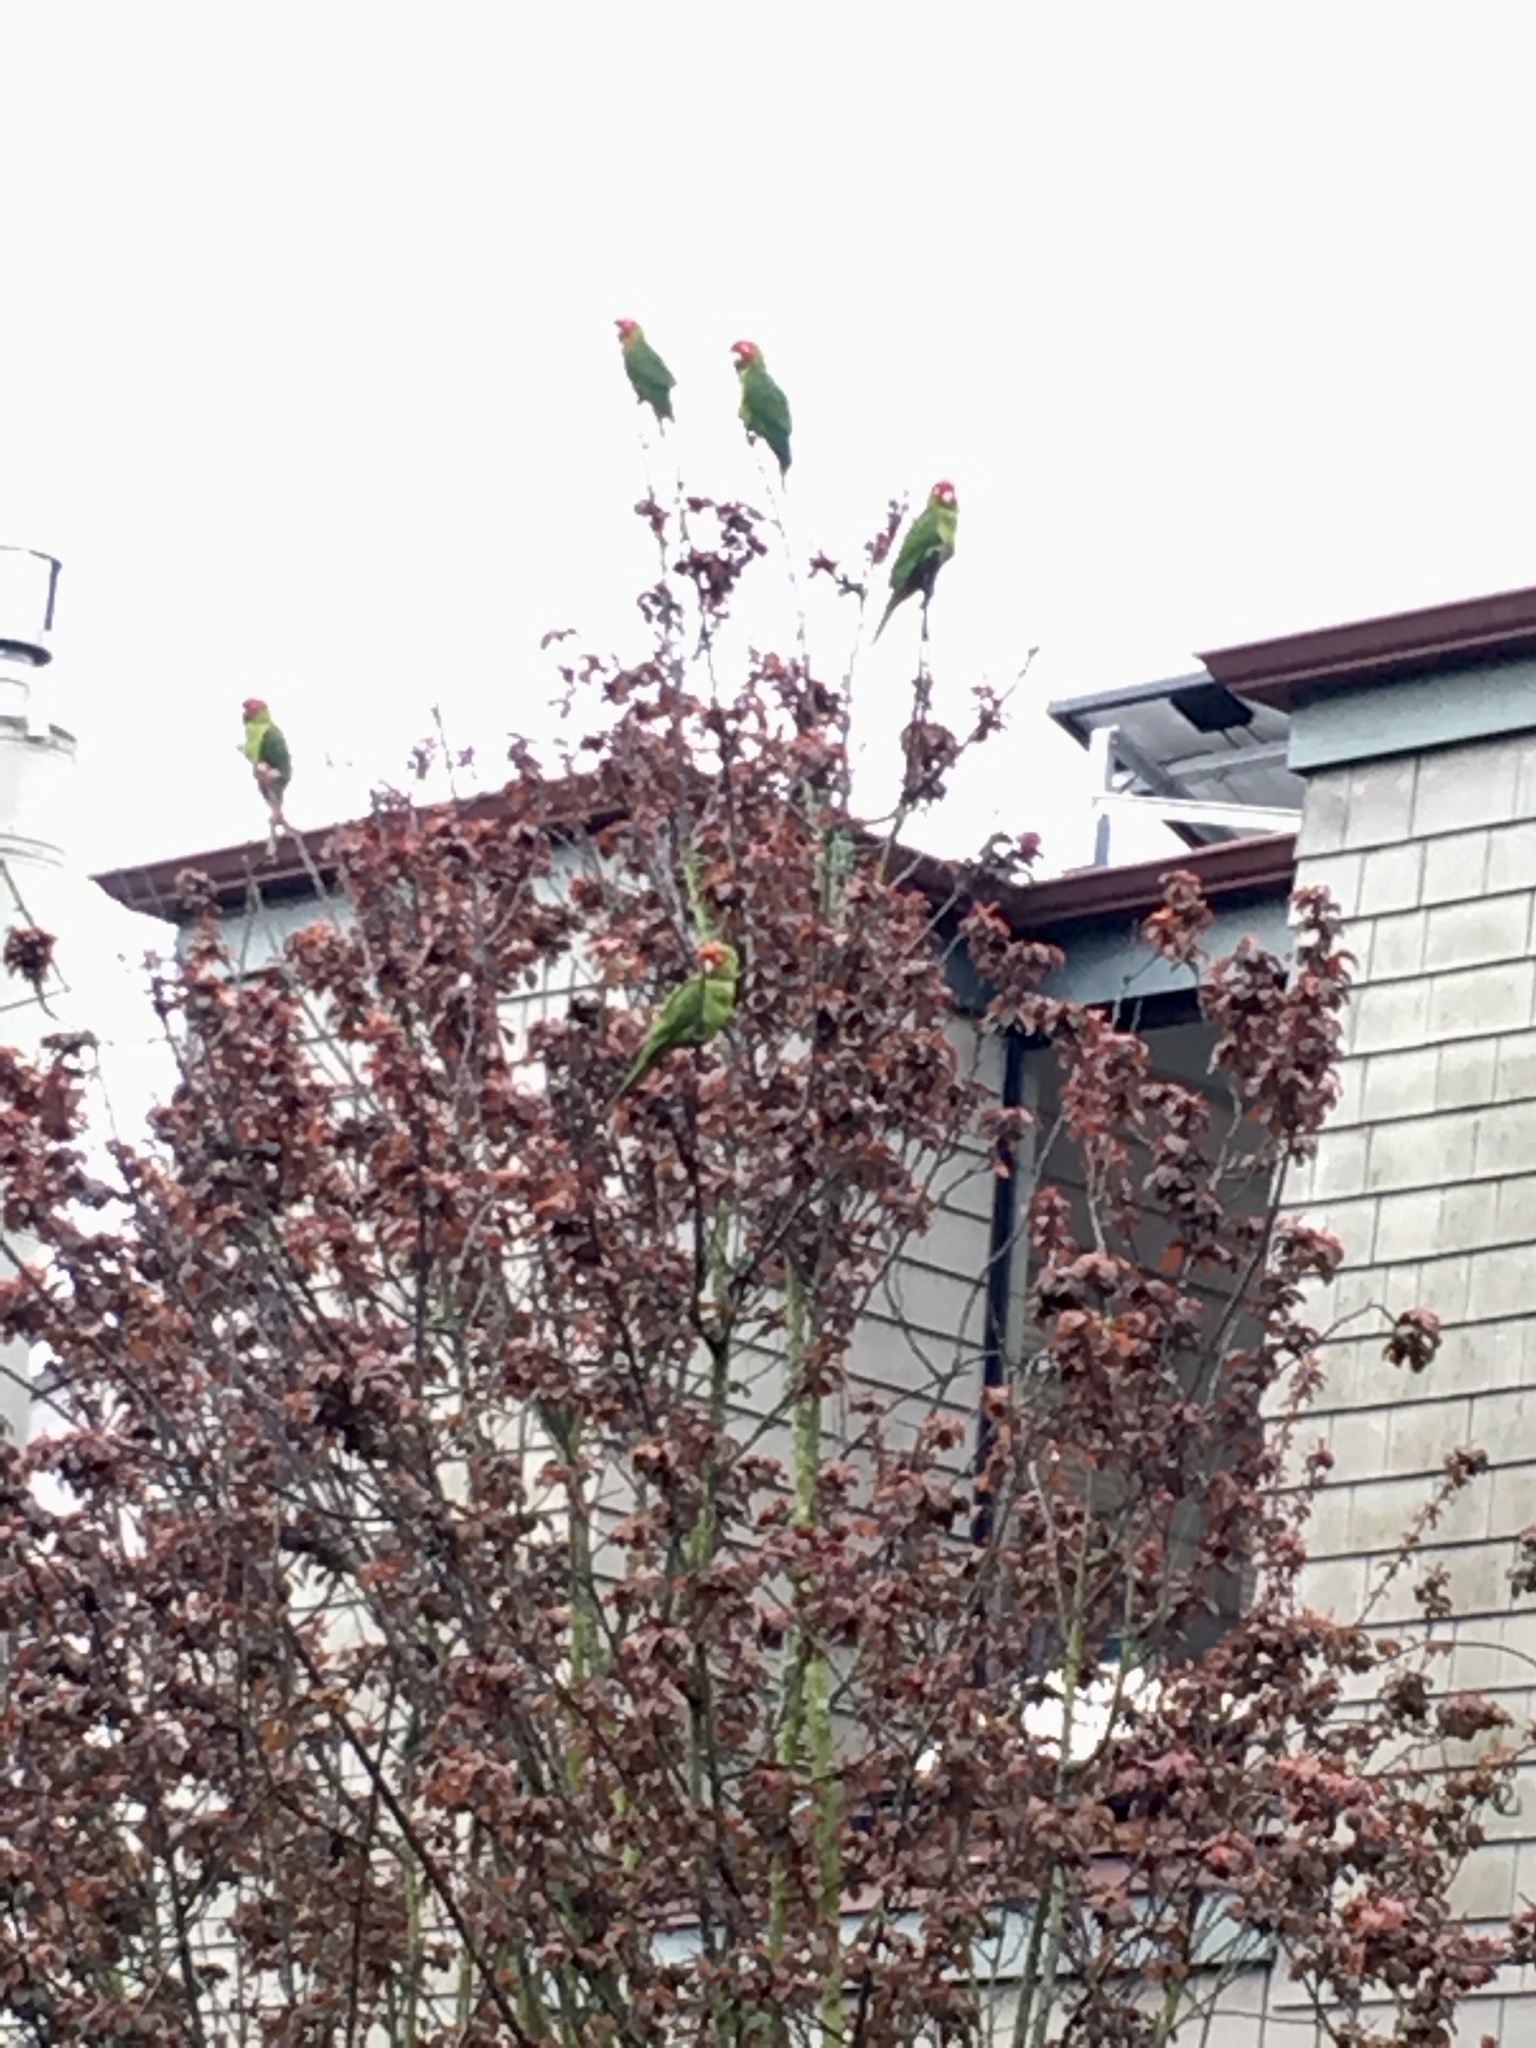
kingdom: Animalia
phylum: Chordata
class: Aves
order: Psittaciformes
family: Psittacidae
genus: Aratinga
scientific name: Aratinga erythrogenys
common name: Red-masked parakeet
